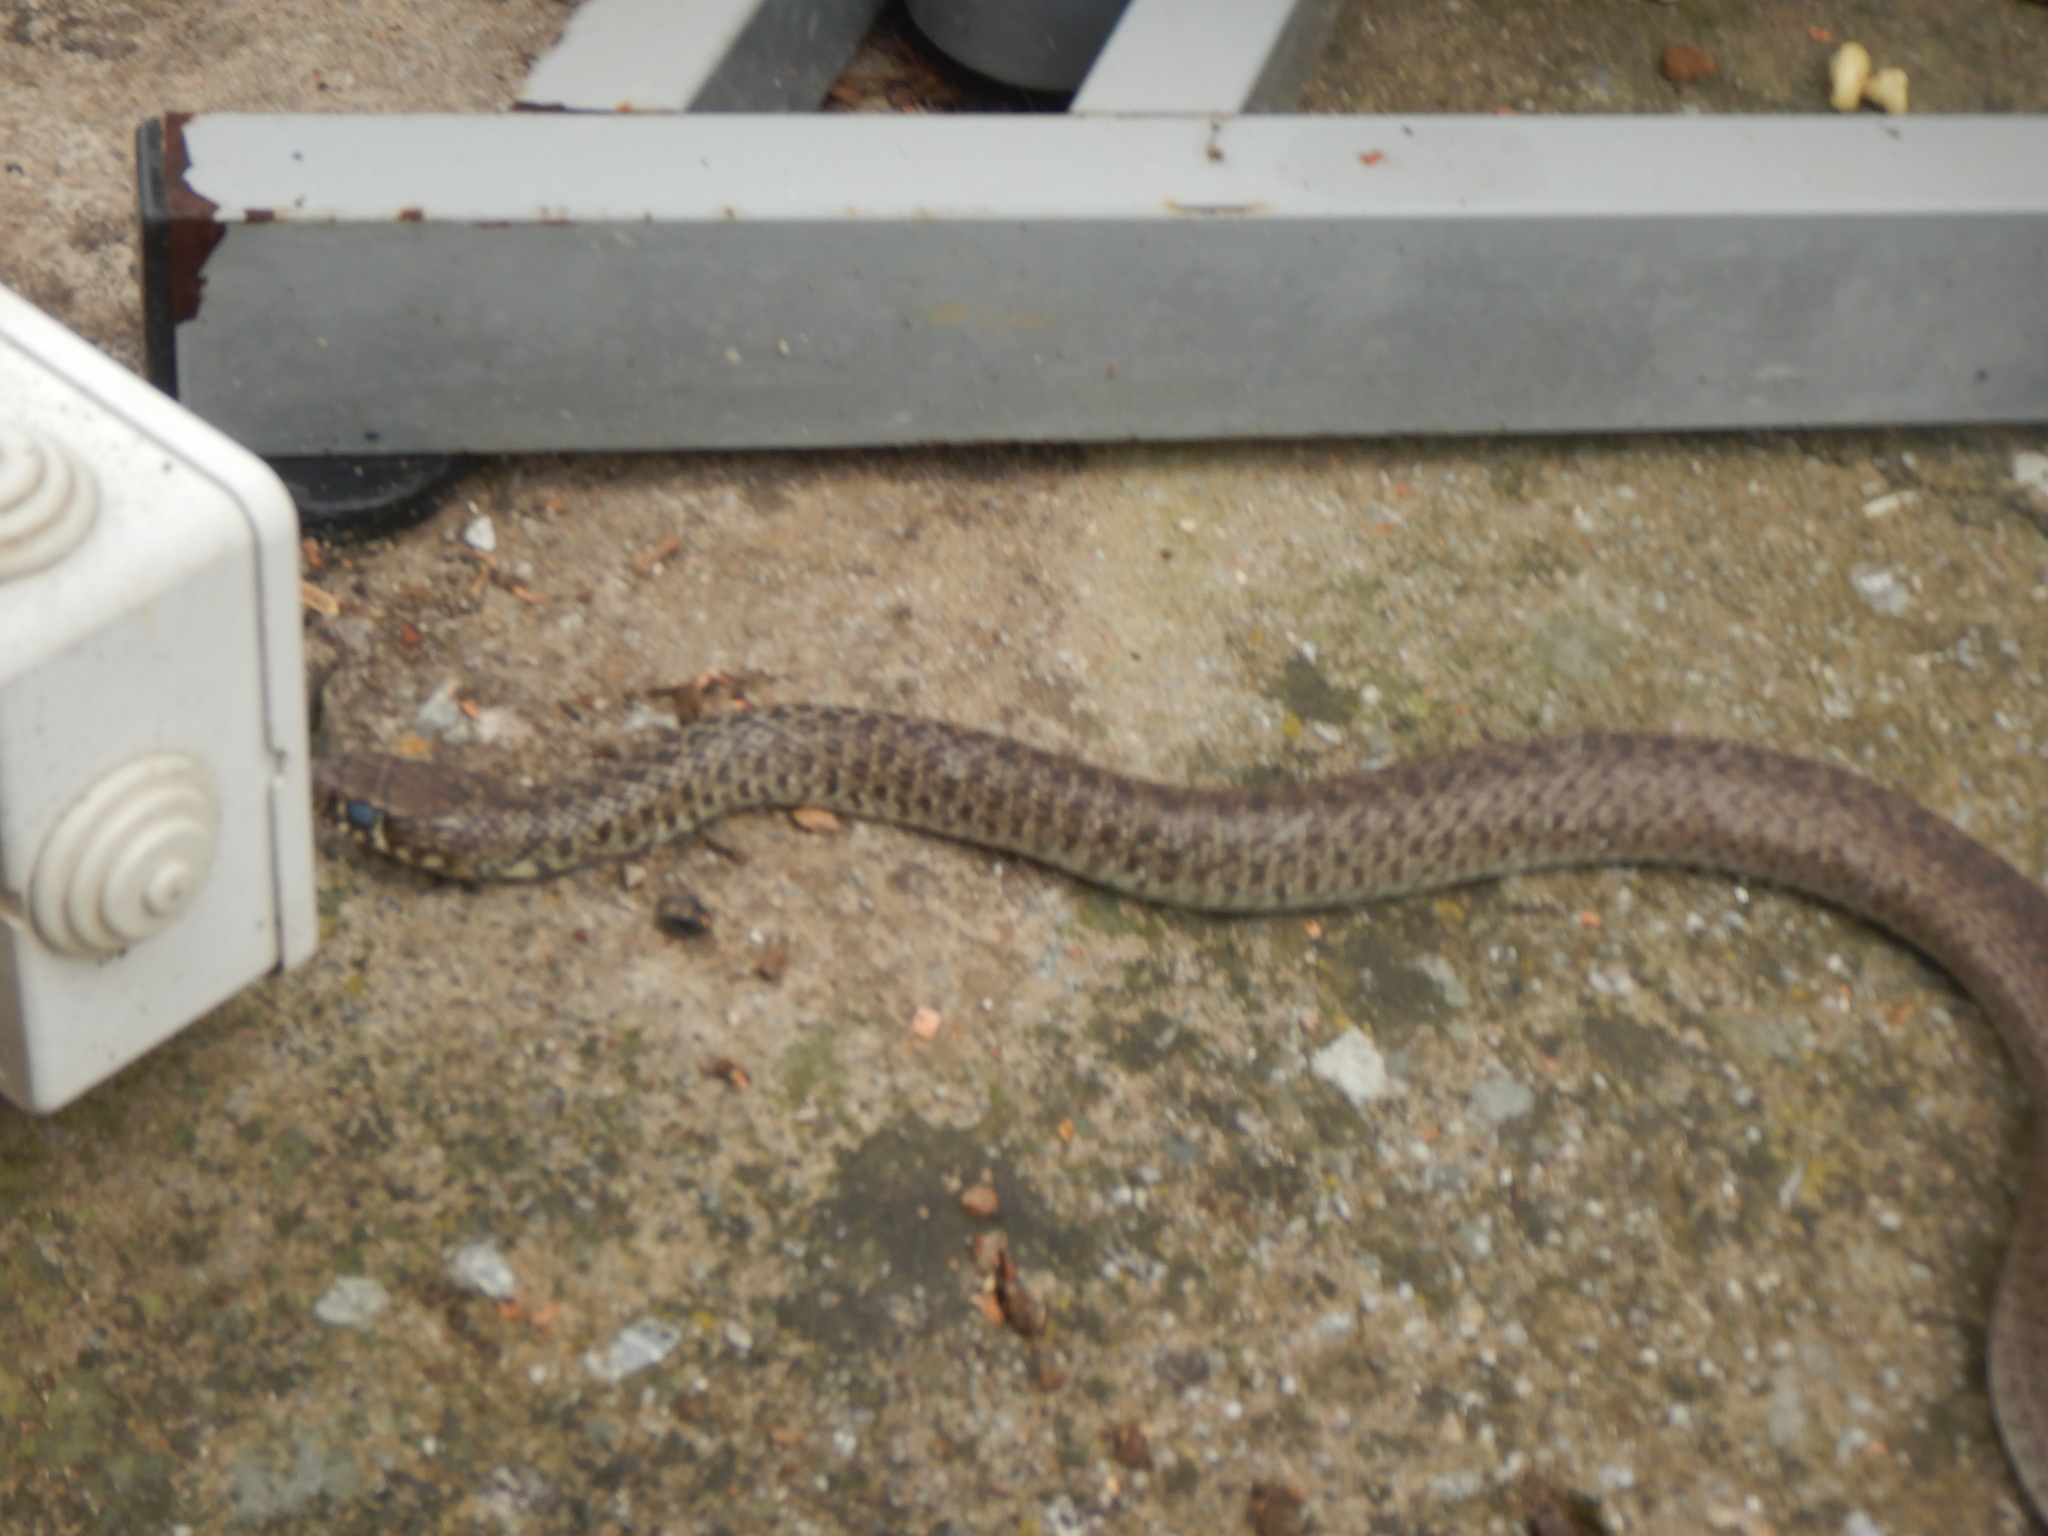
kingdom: Animalia
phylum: Chordata
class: Squamata
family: Colubridae
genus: Hierophis
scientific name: Hierophis gemonensis
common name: Balkan whip snake
